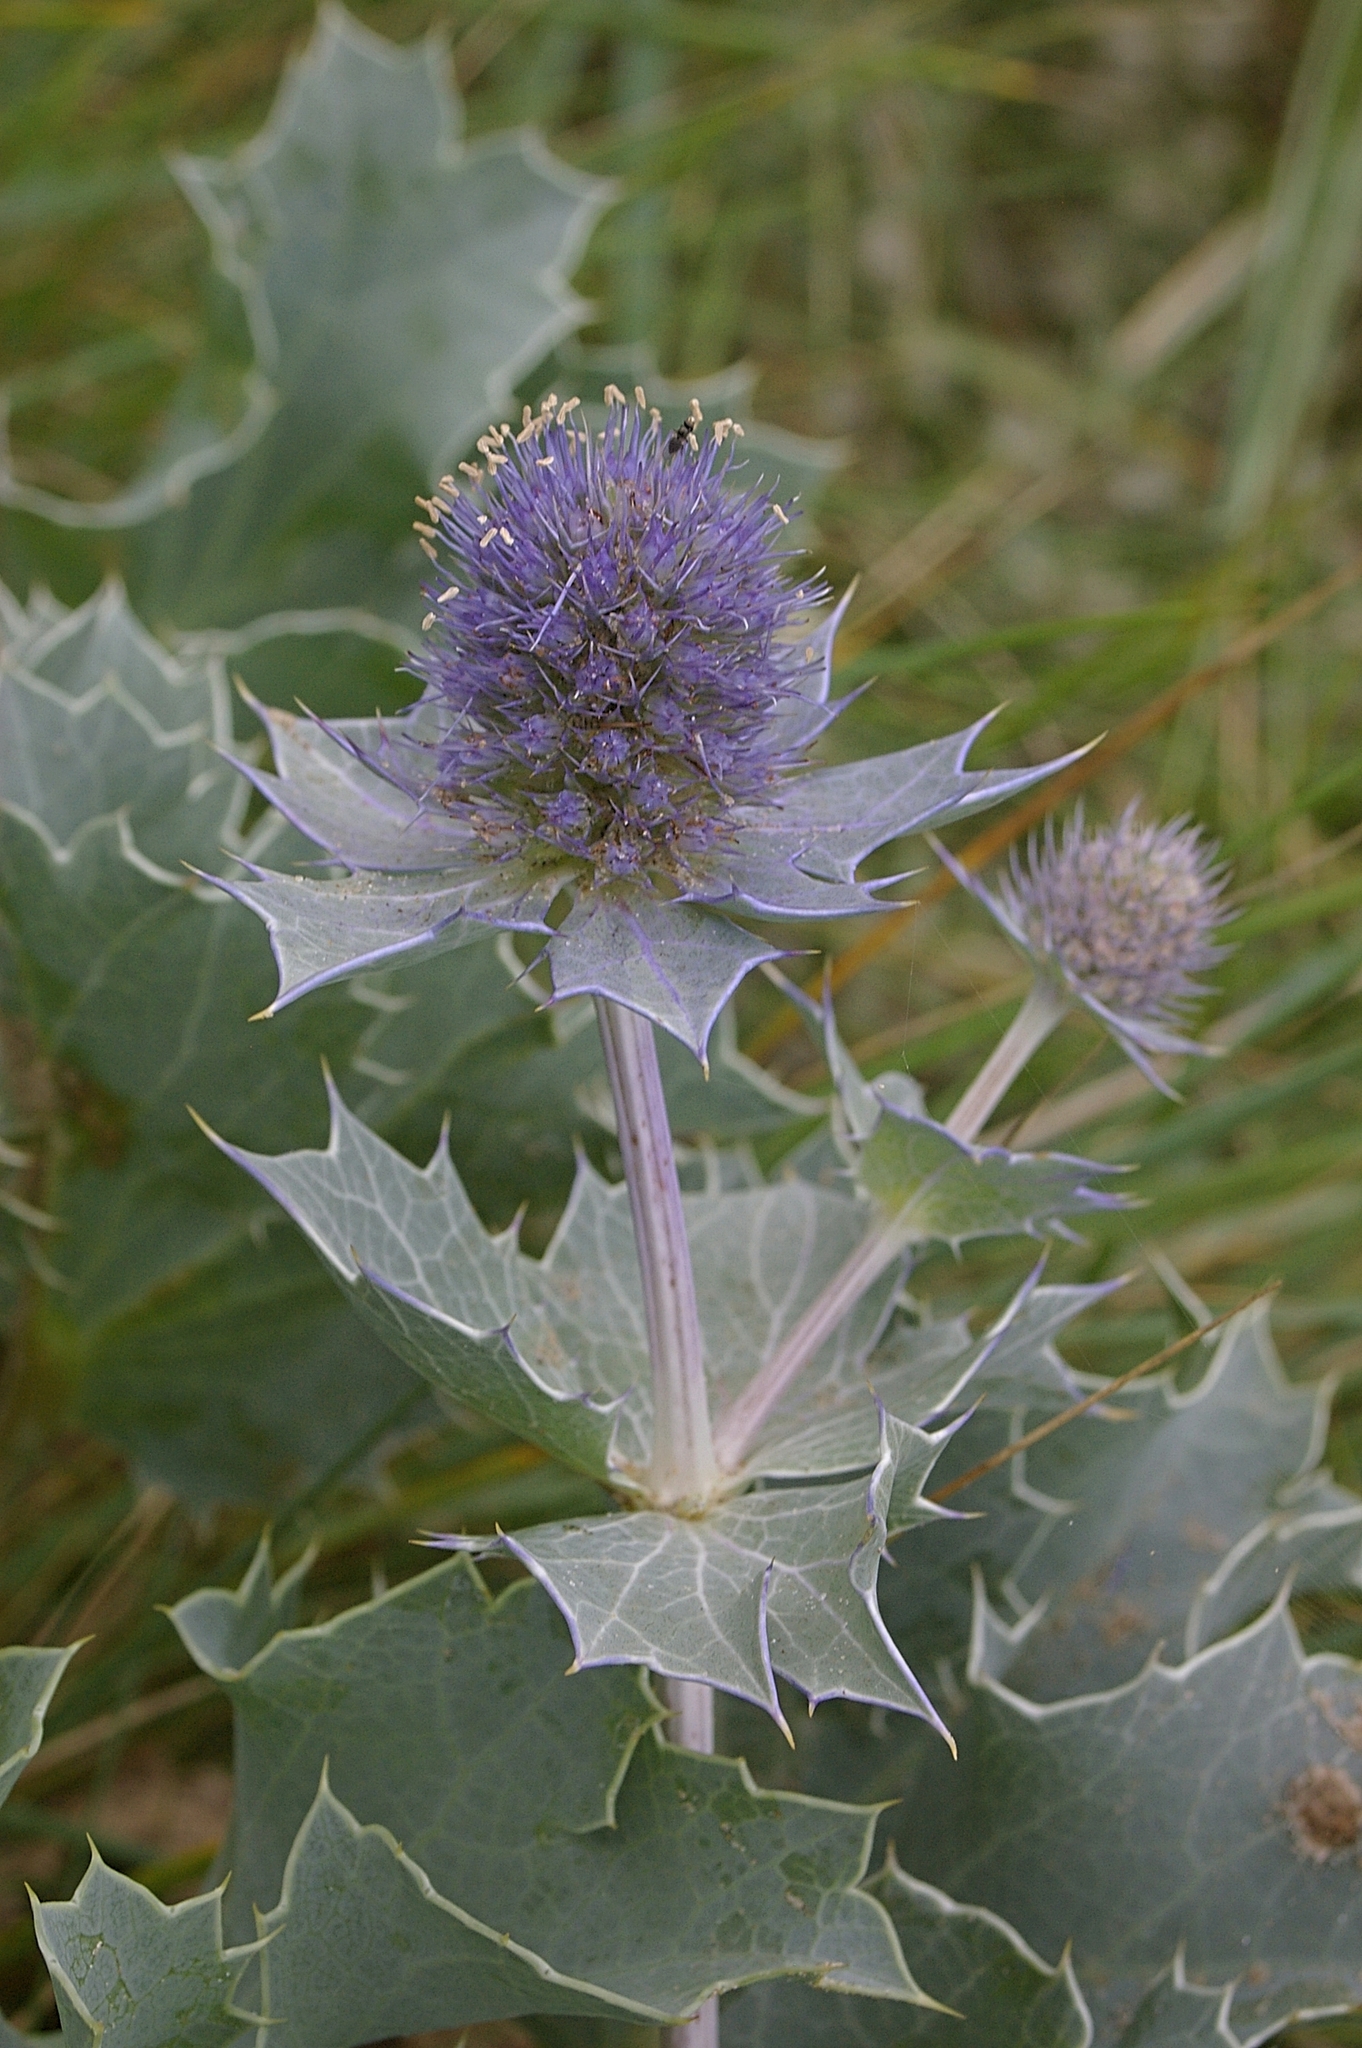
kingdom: Plantae
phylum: Tracheophyta
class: Magnoliopsida
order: Apiales
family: Apiaceae
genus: Eryngium
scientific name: Eryngium maritimum
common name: Sea-holly
